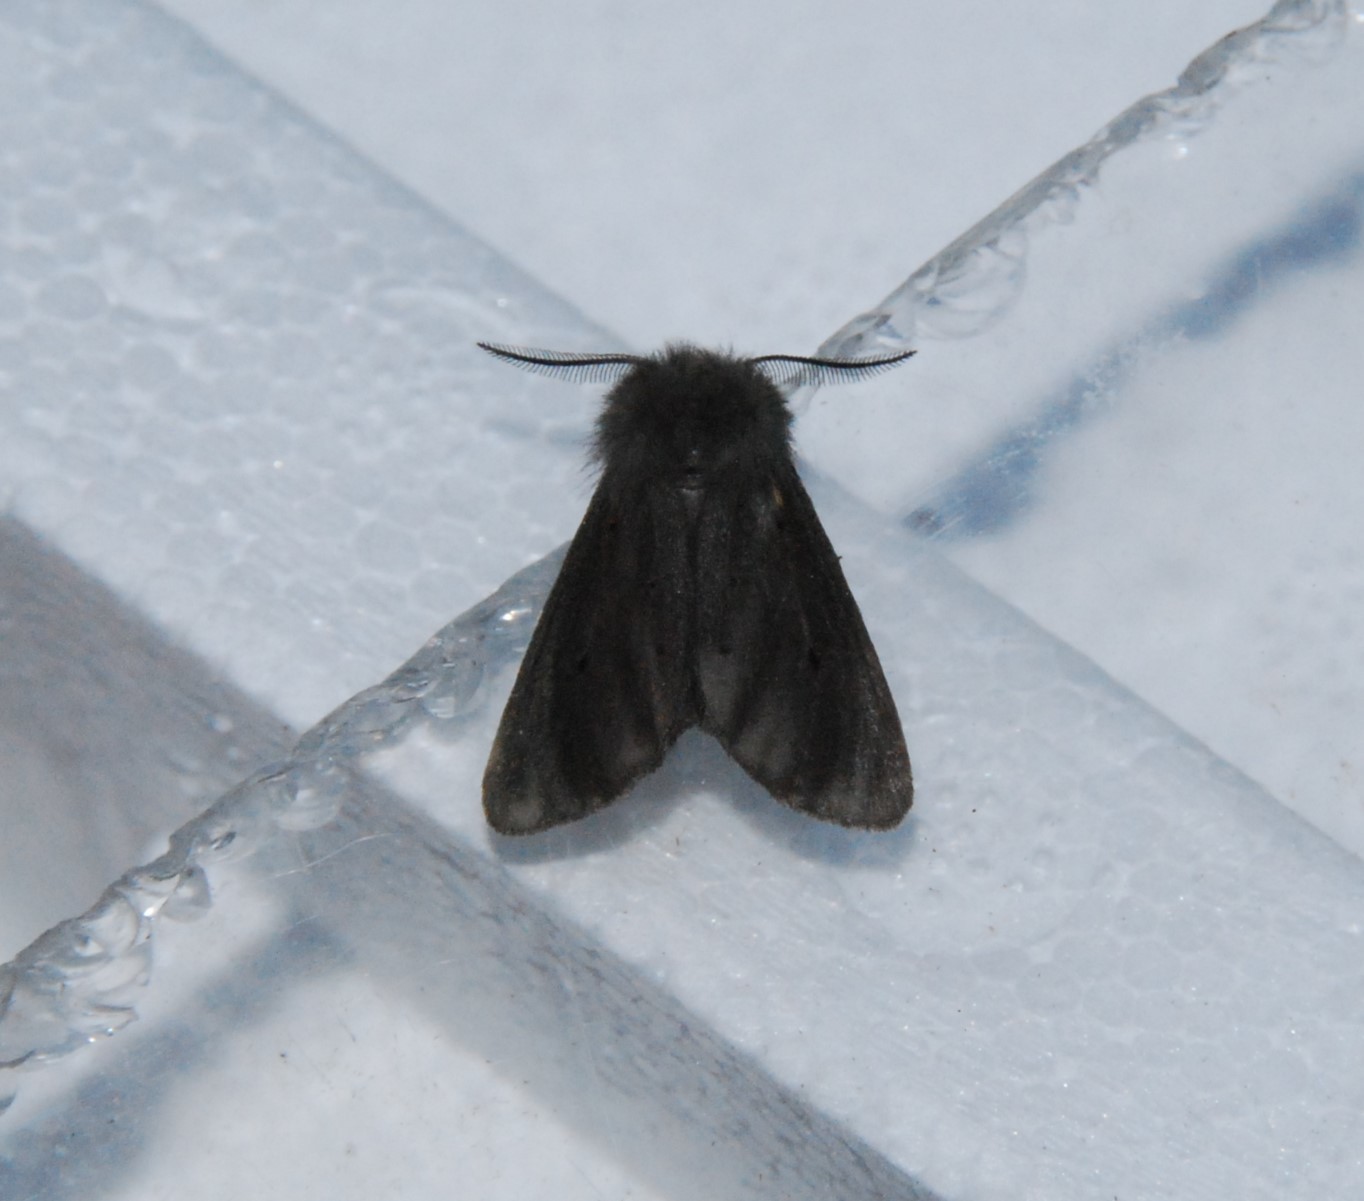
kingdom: Animalia
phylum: Arthropoda
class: Insecta
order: Lepidoptera
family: Erebidae
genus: Diaphora
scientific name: Diaphora mendica
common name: Muslin moth
